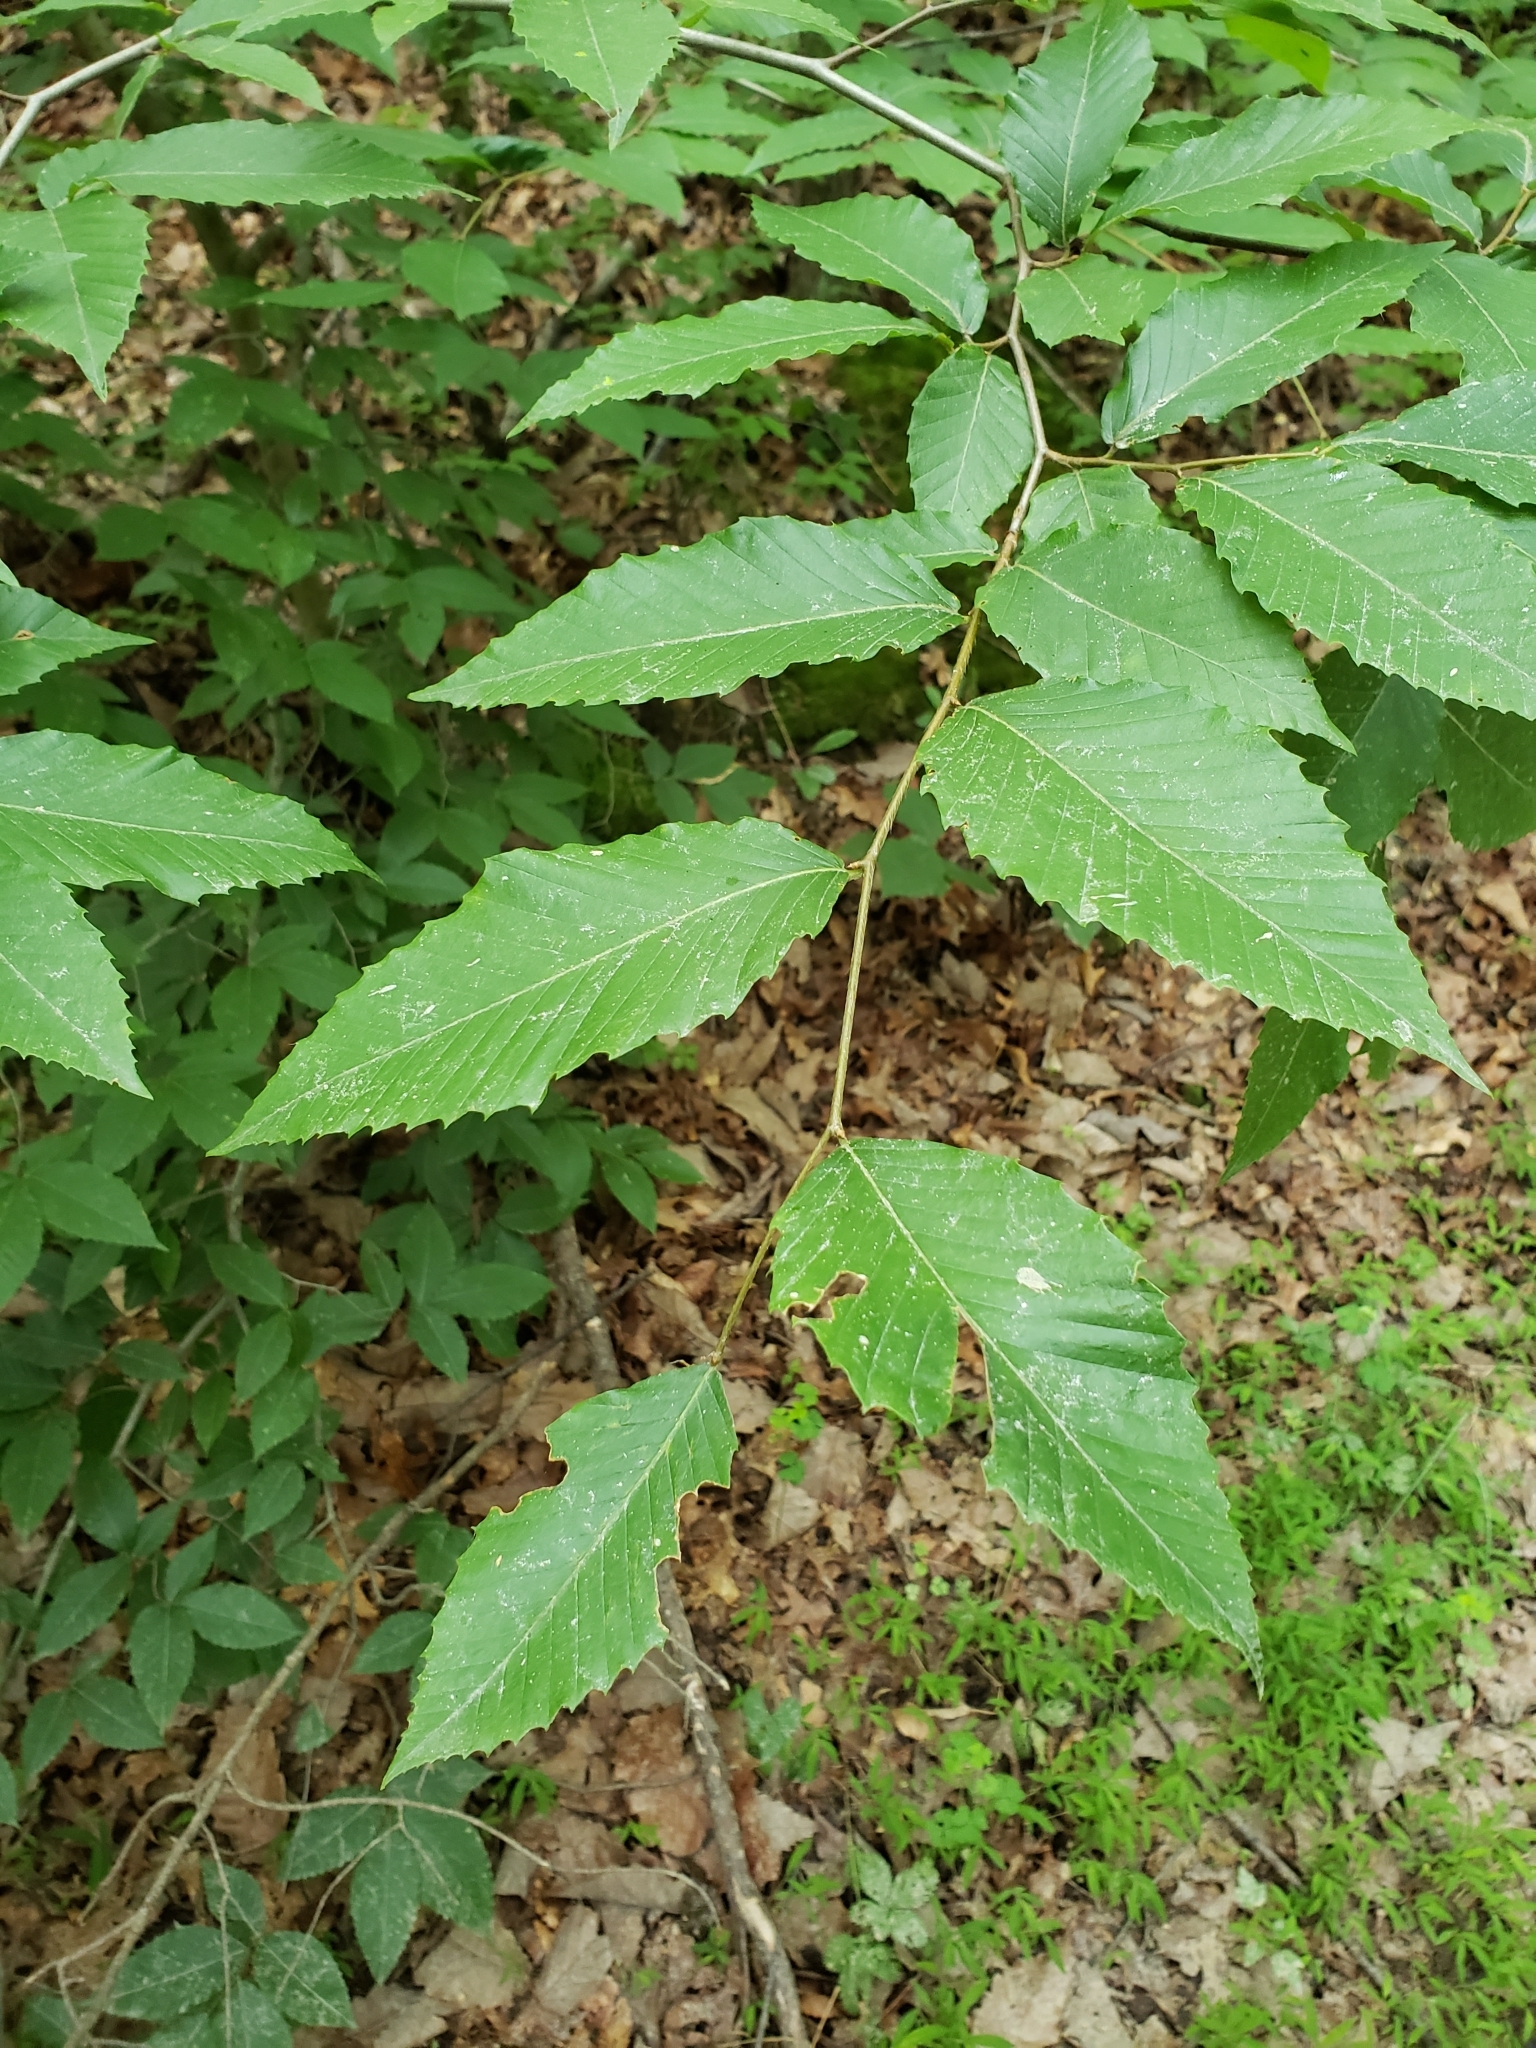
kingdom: Plantae
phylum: Tracheophyta
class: Magnoliopsida
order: Fagales
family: Fagaceae
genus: Fagus
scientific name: Fagus grandifolia
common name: American beech
